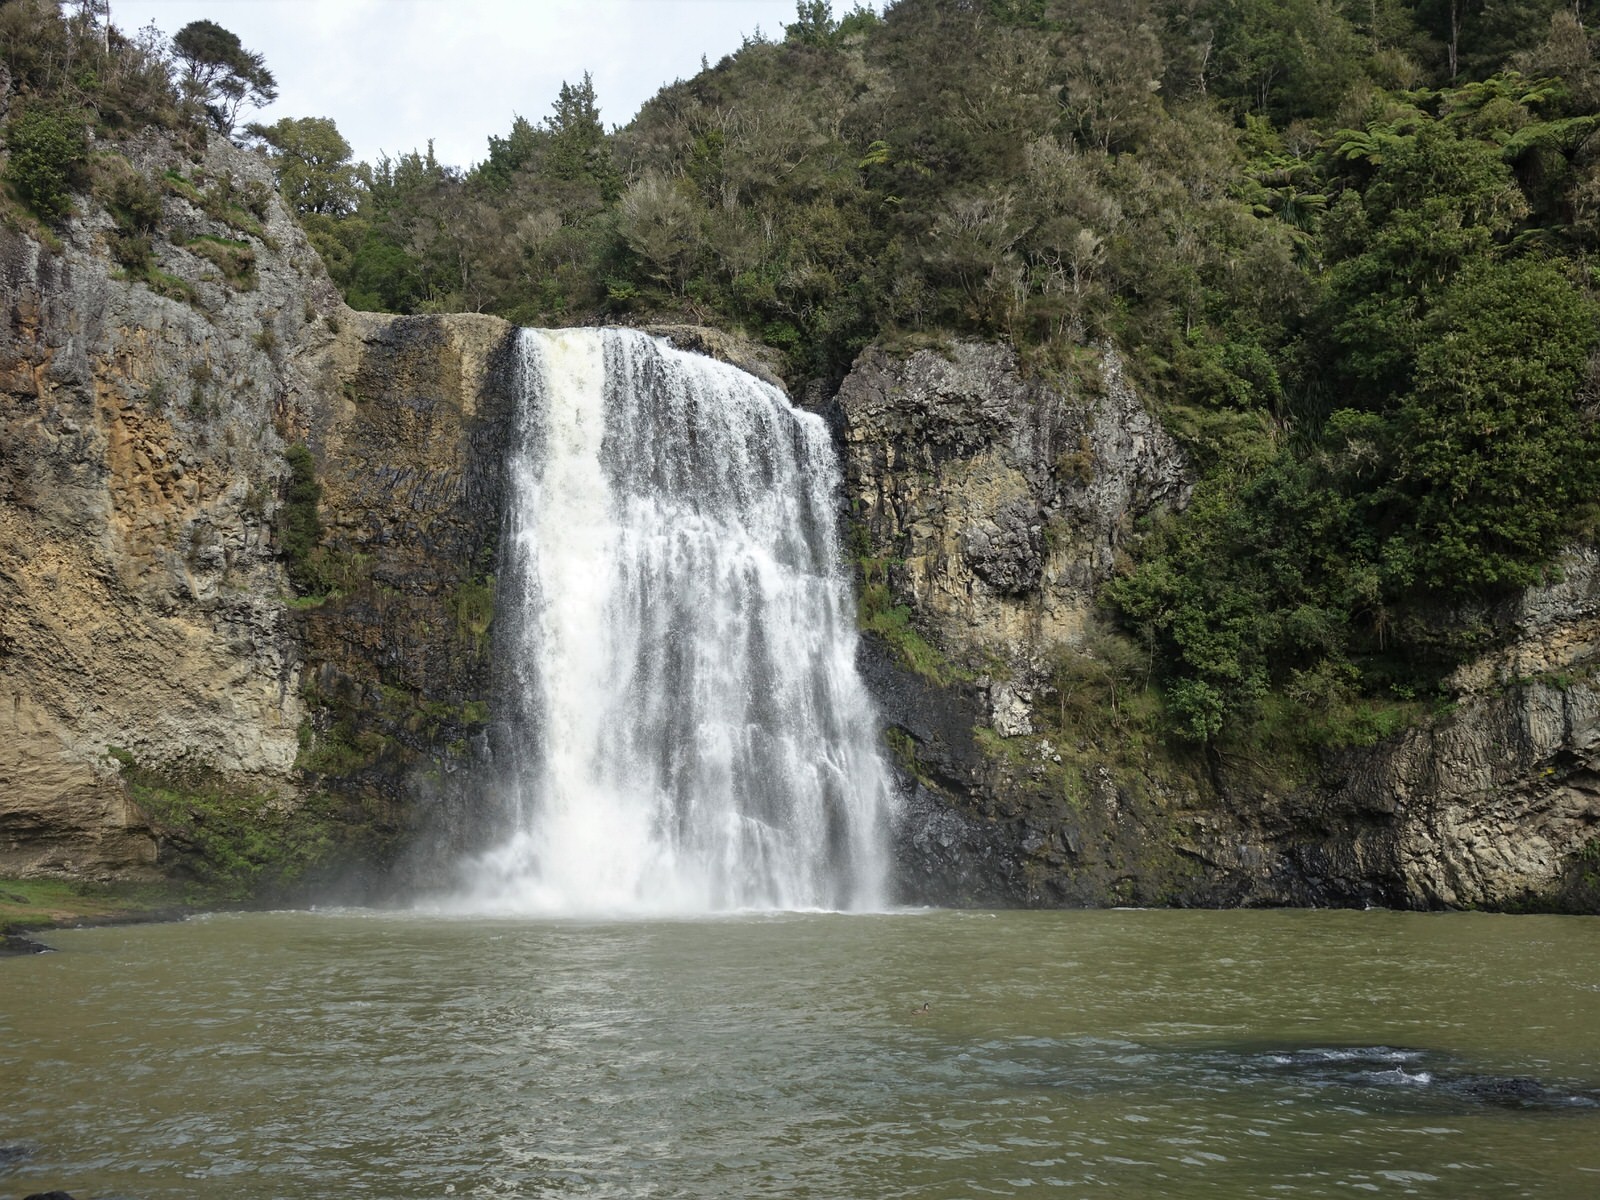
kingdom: Animalia
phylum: Chordata
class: Aves
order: Anseriformes
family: Anatidae
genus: Anas
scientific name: Anas platyrhynchos
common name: Mallard
